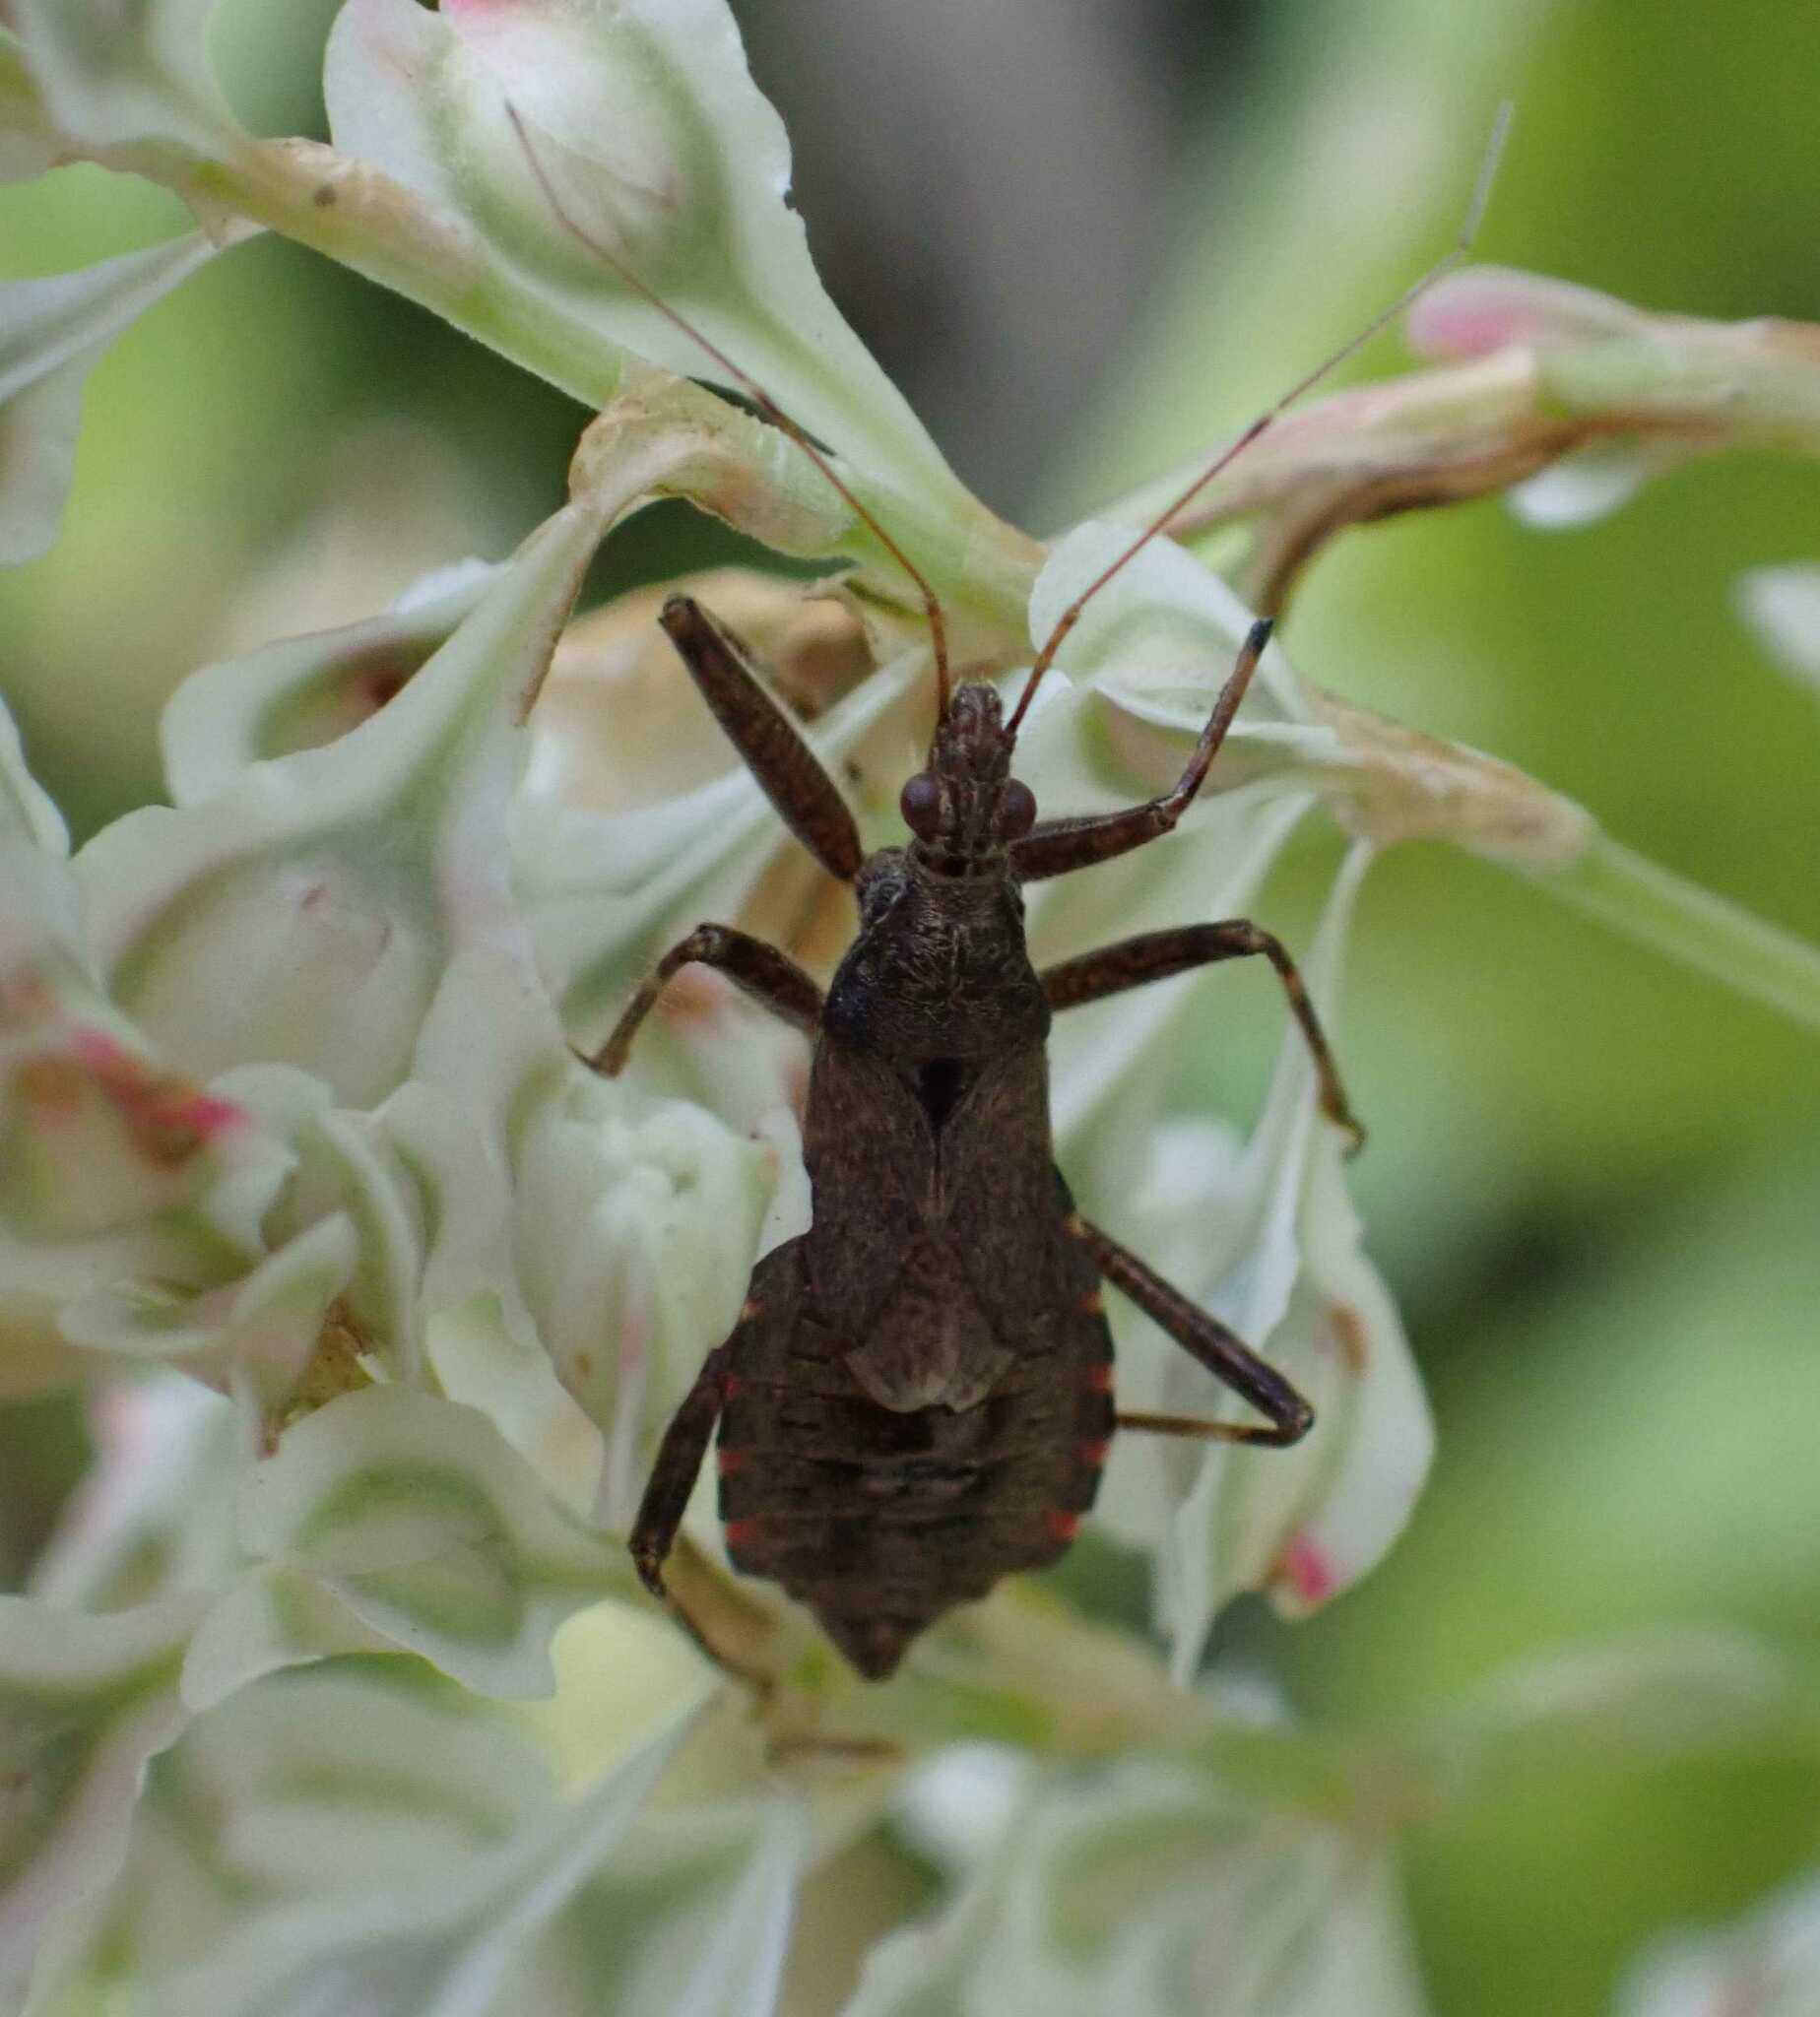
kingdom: Animalia
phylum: Arthropoda
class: Insecta
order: Hemiptera
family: Nabidae
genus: Himacerus
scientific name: Himacerus apterus
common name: Tree damsel bug
